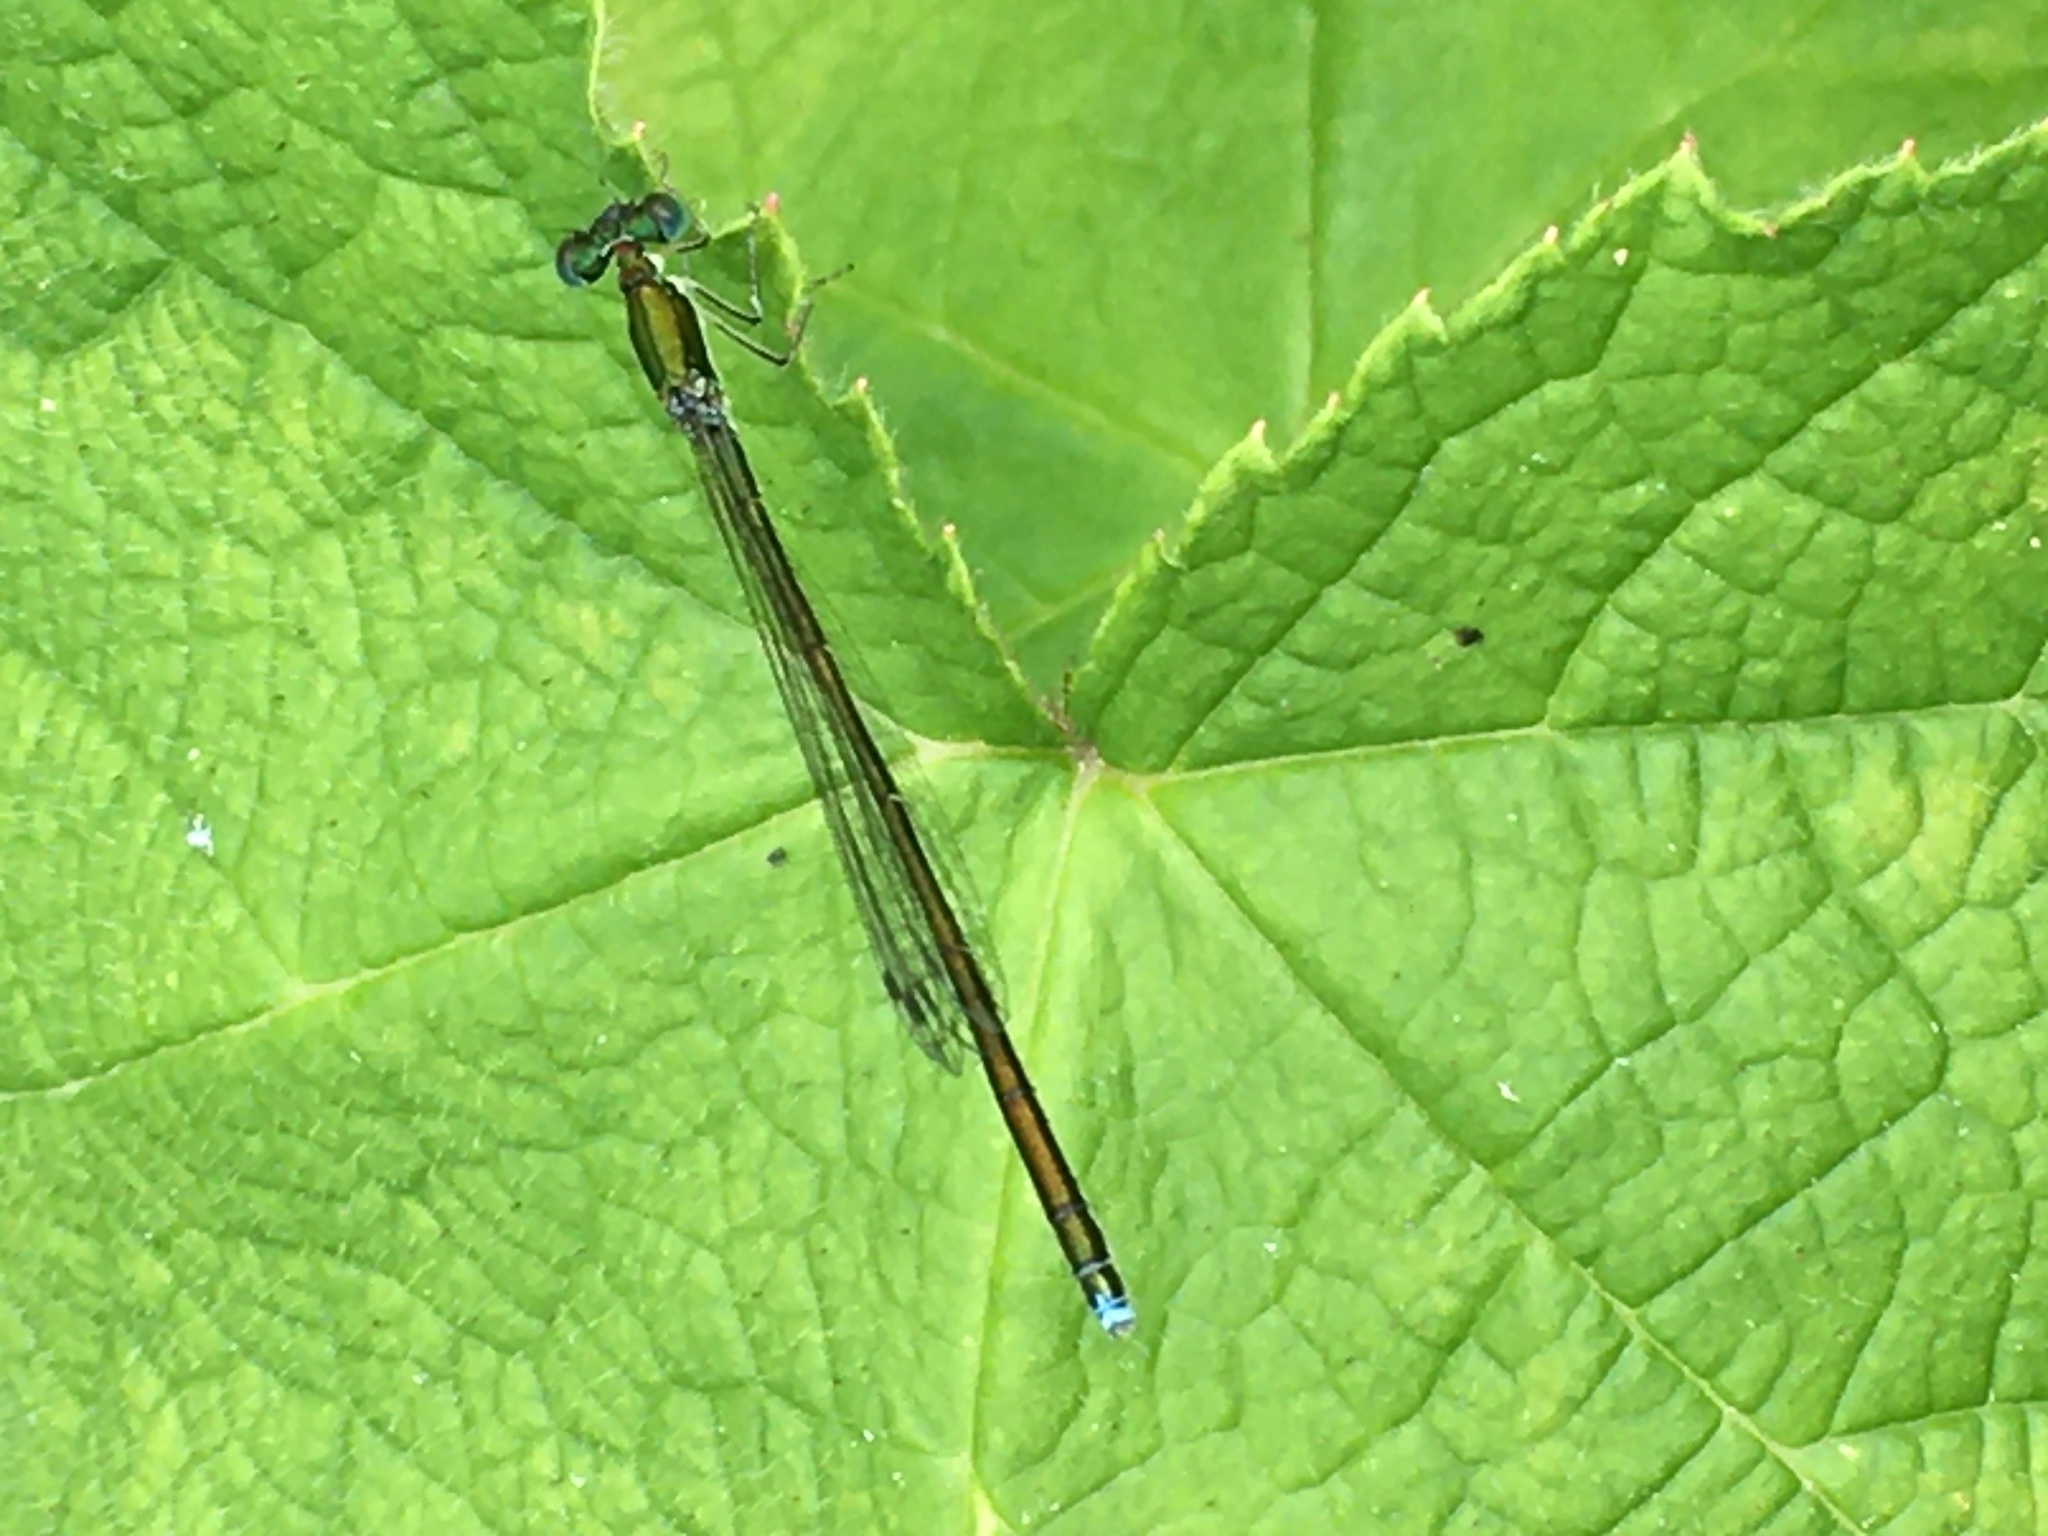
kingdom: Animalia
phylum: Arthropoda
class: Insecta
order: Odonata
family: Coenagrionidae
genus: Nehalennia
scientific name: Nehalennia irene
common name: Sedge sprite
